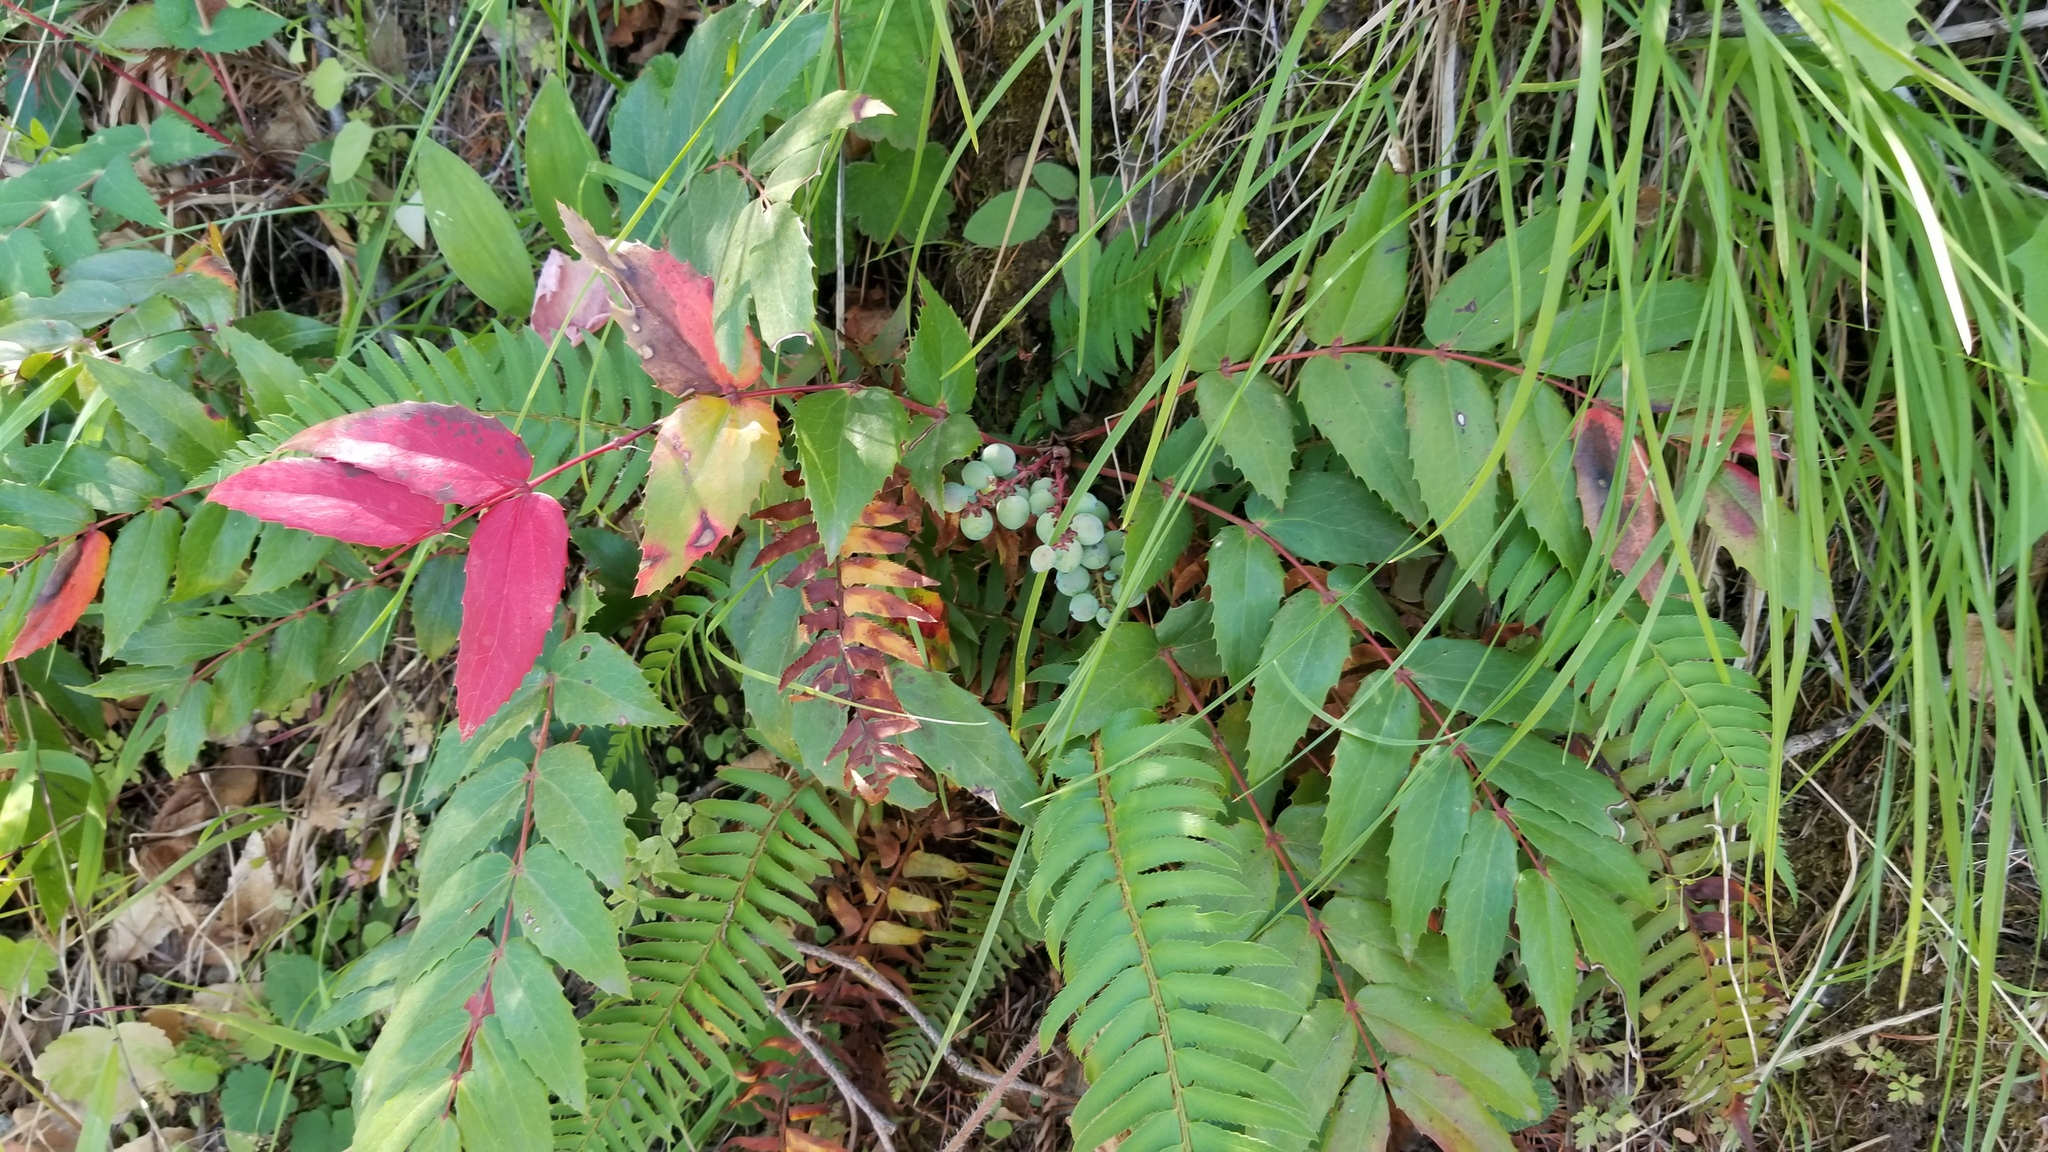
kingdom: Plantae
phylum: Tracheophyta
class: Magnoliopsida
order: Ranunculales
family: Berberidaceae
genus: Mahonia
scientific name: Mahonia nervosa
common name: Cascade oregon-grape
